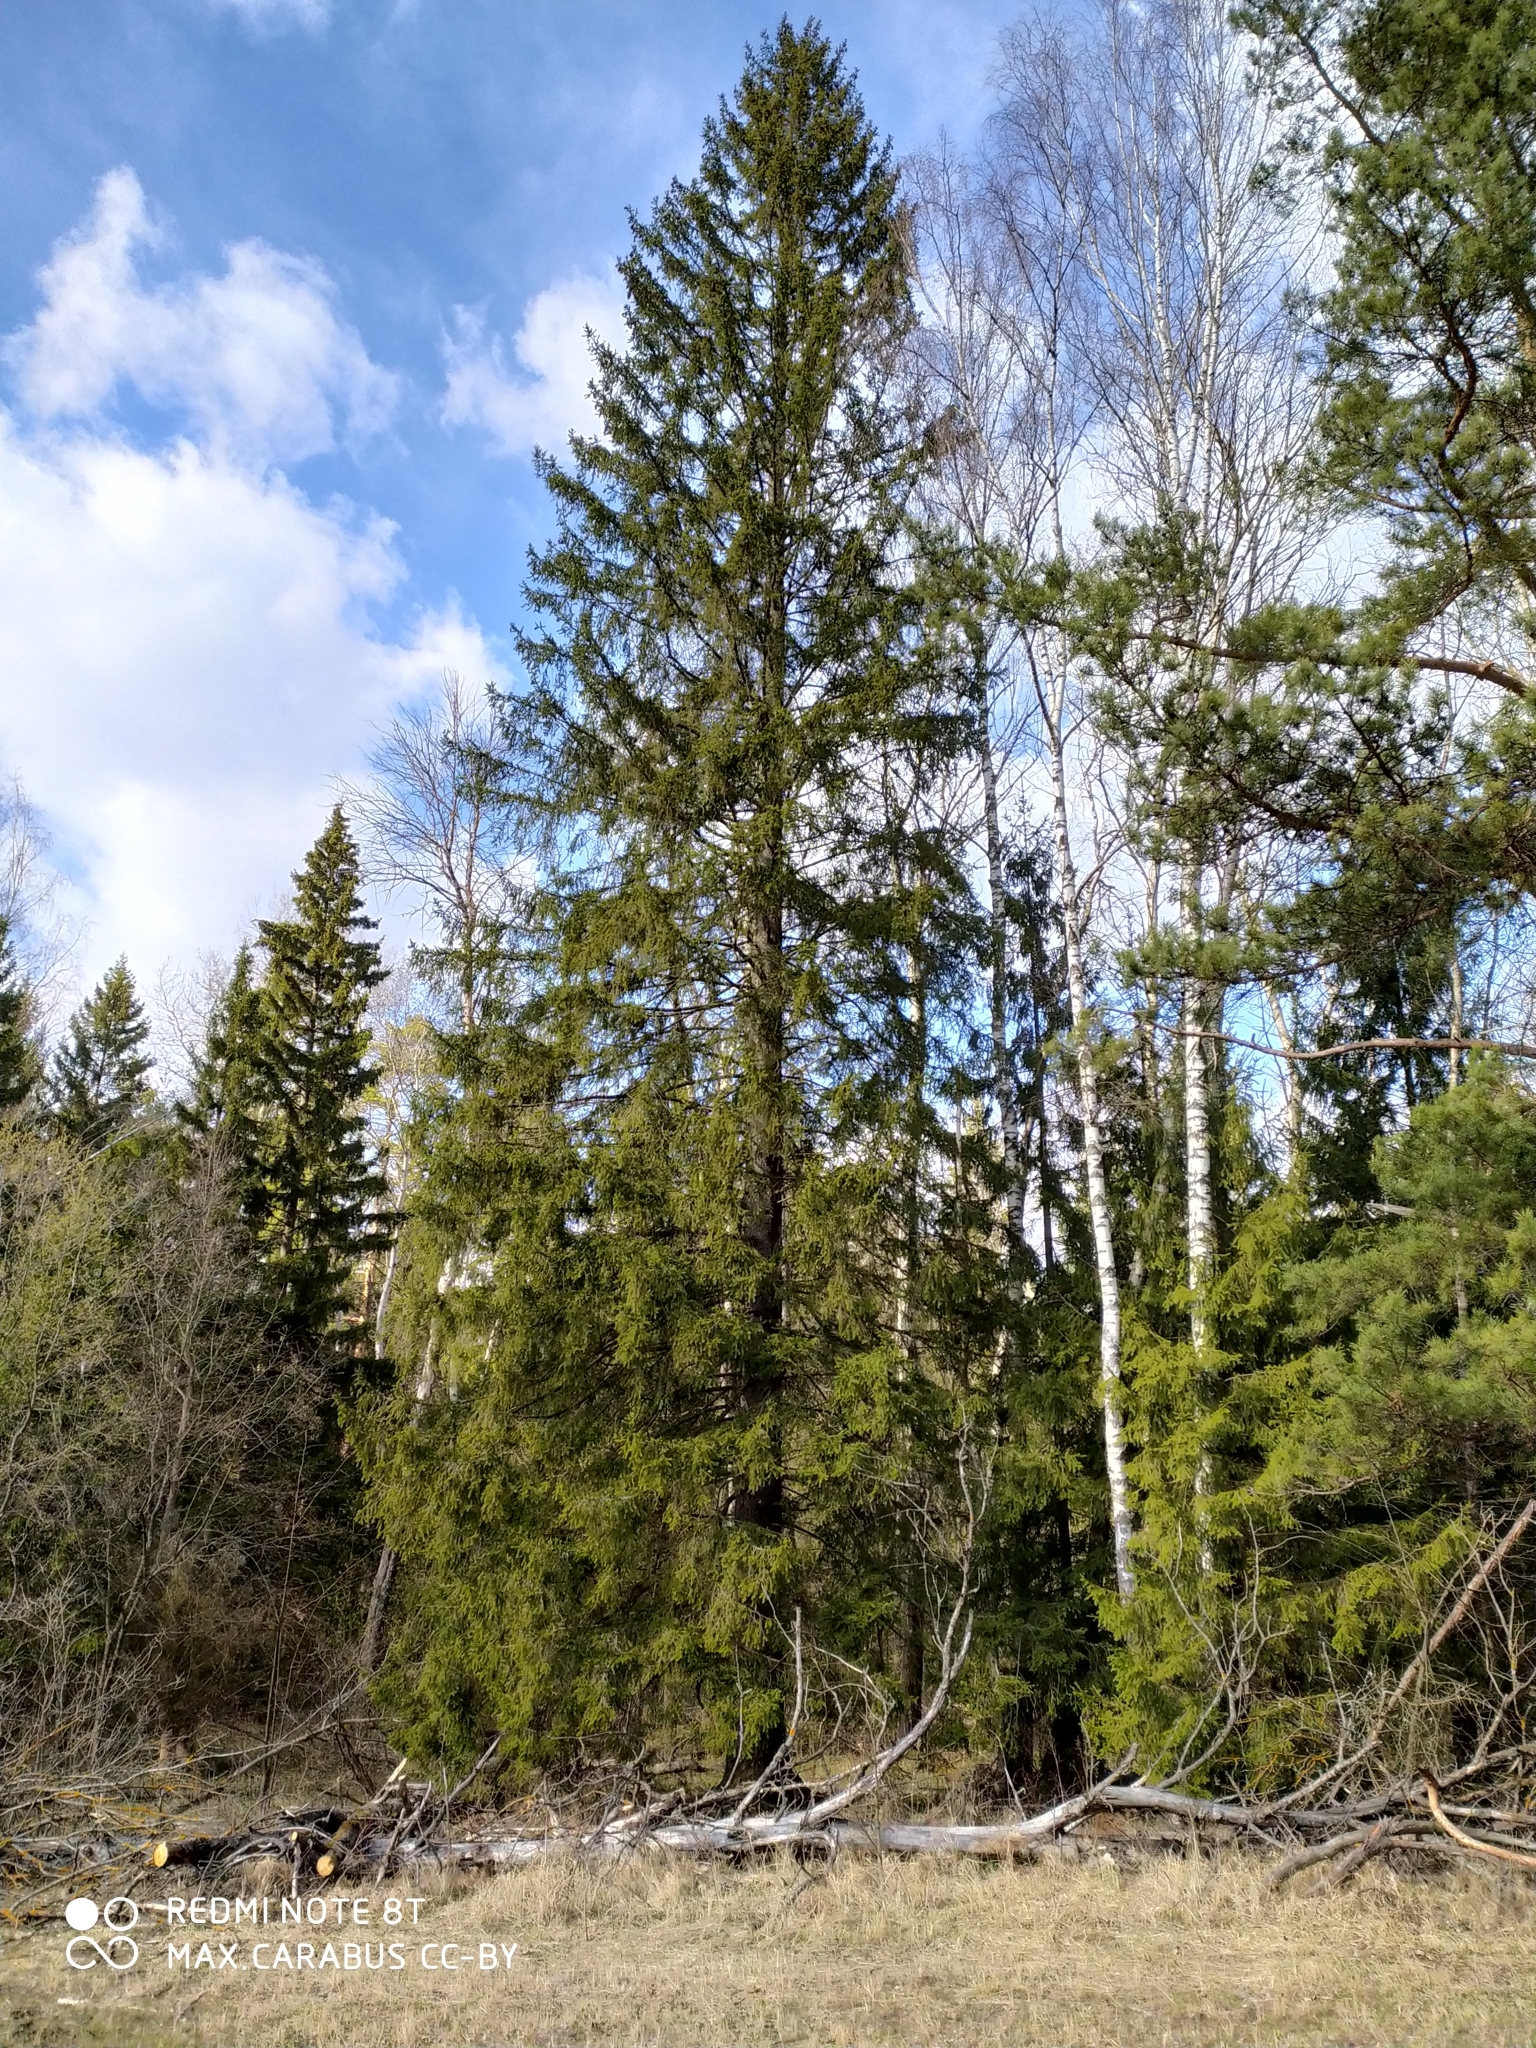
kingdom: Plantae
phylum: Tracheophyta
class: Pinopsida
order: Pinales
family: Pinaceae
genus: Picea
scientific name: Picea abies
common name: Norway spruce
